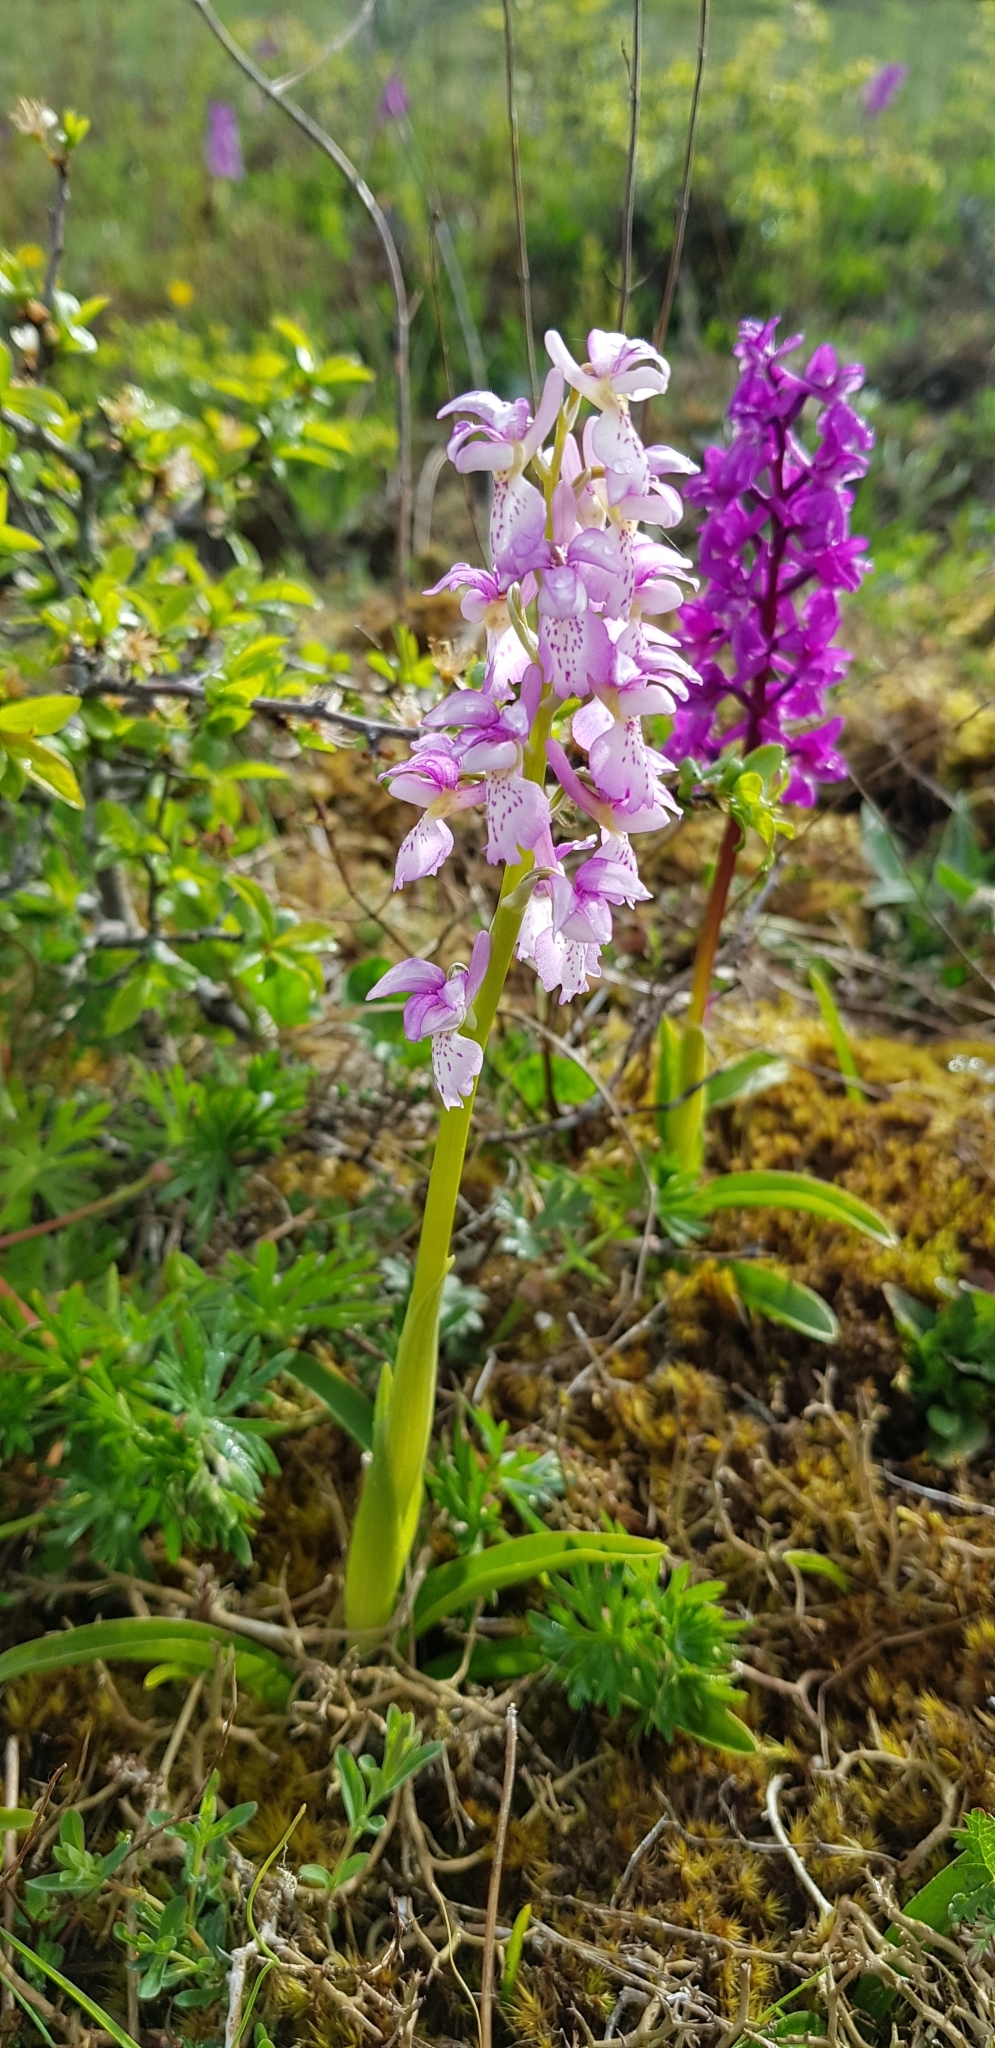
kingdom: Plantae
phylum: Tracheophyta
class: Liliopsida
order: Asparagales
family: Orchidaceae
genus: Orchis
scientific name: Orchis mascula
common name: Early-purple orchid
